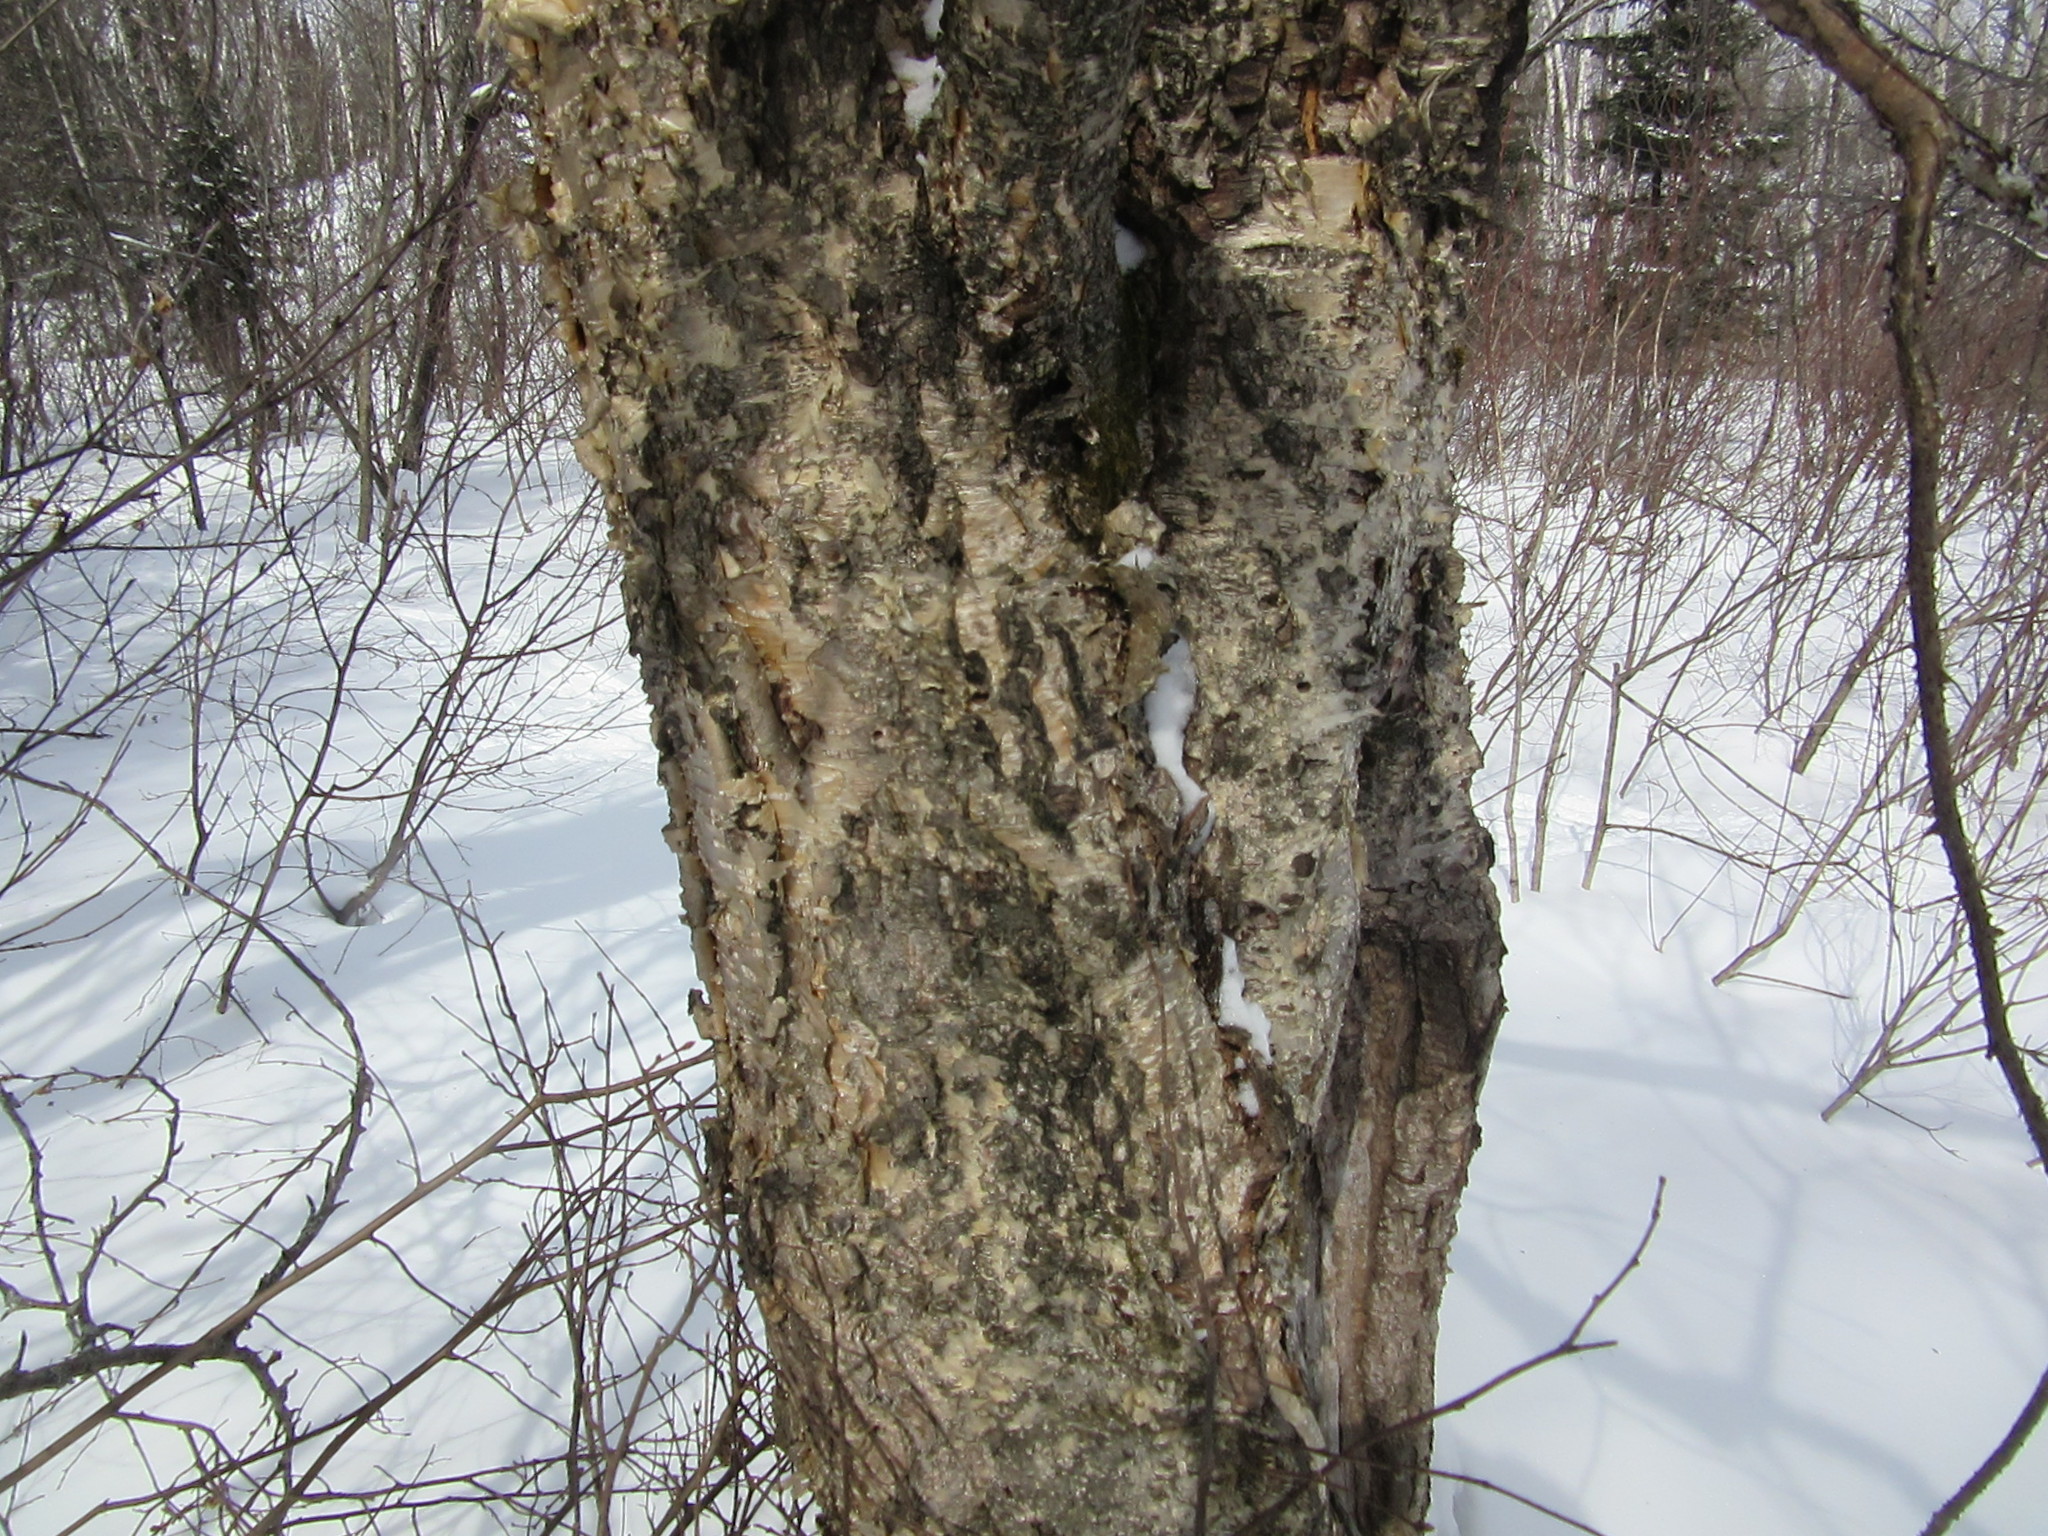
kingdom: Plantae
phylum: Tracheophyta
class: Magnoliopsida
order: Fagales
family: Betulaceae
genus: Betula
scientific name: Betula alleghaniensis
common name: Yellow birch
